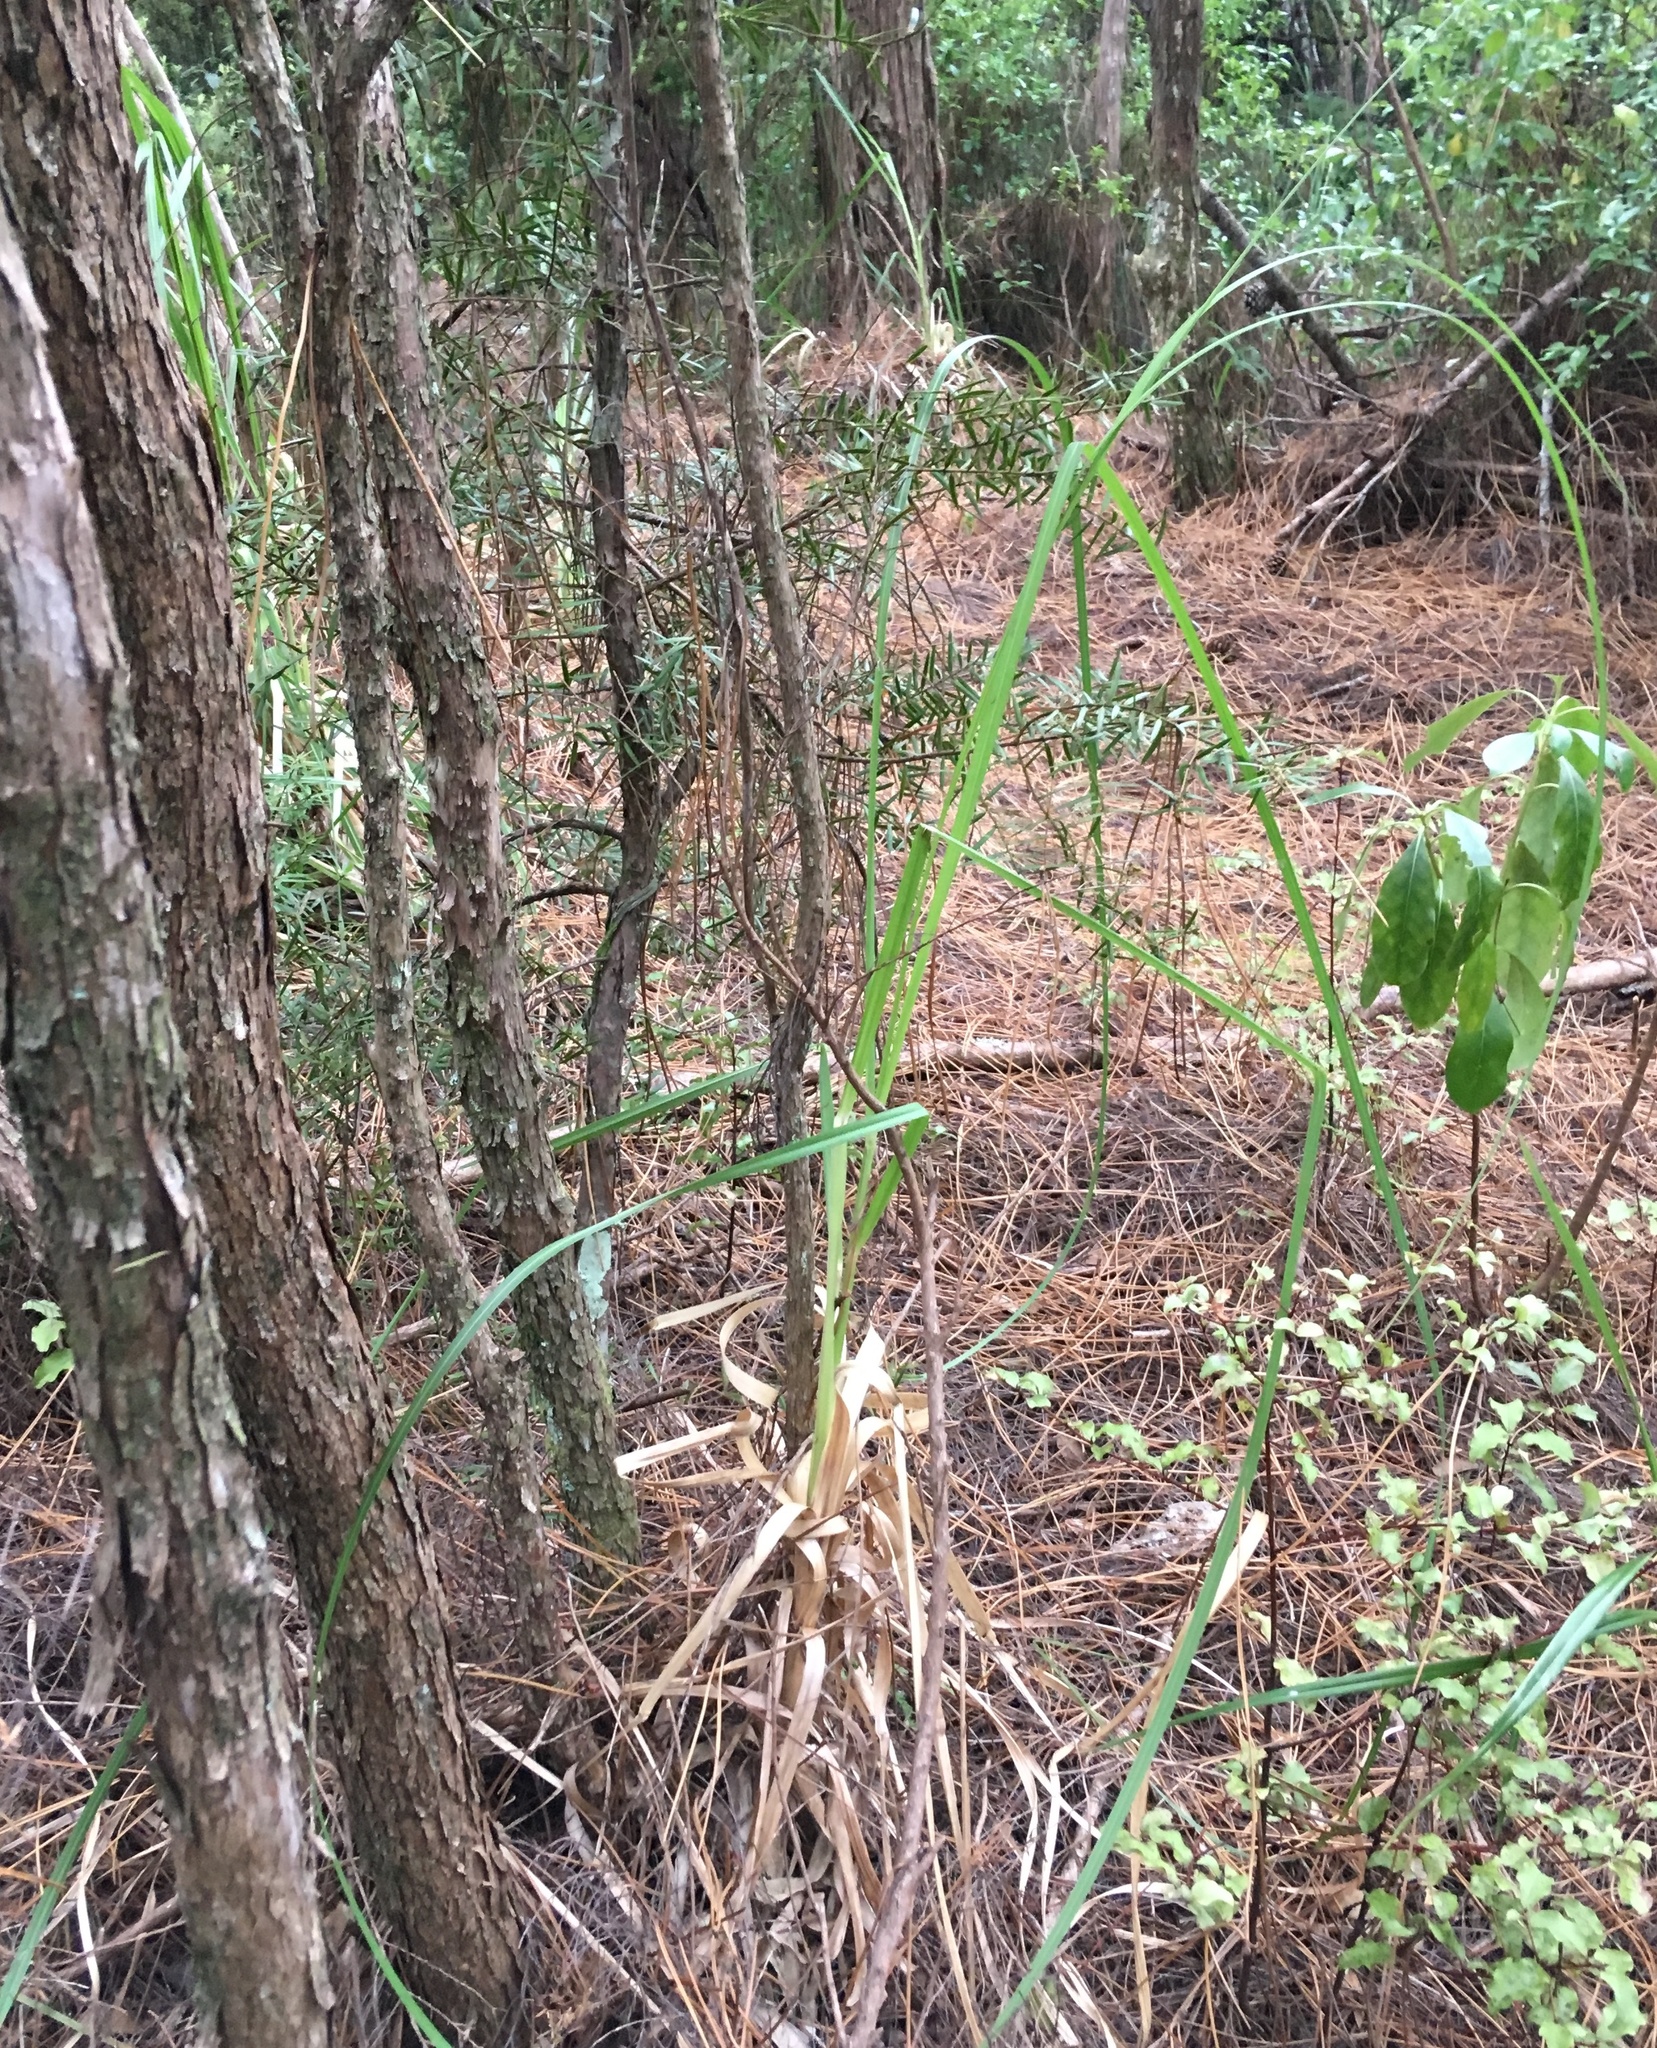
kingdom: Plantae
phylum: Tracheophyta
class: Liliopsida
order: Poales
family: Poaceae
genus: Cortaderia
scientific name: Cortaderia selloana
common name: Uruguayan pampas grass
